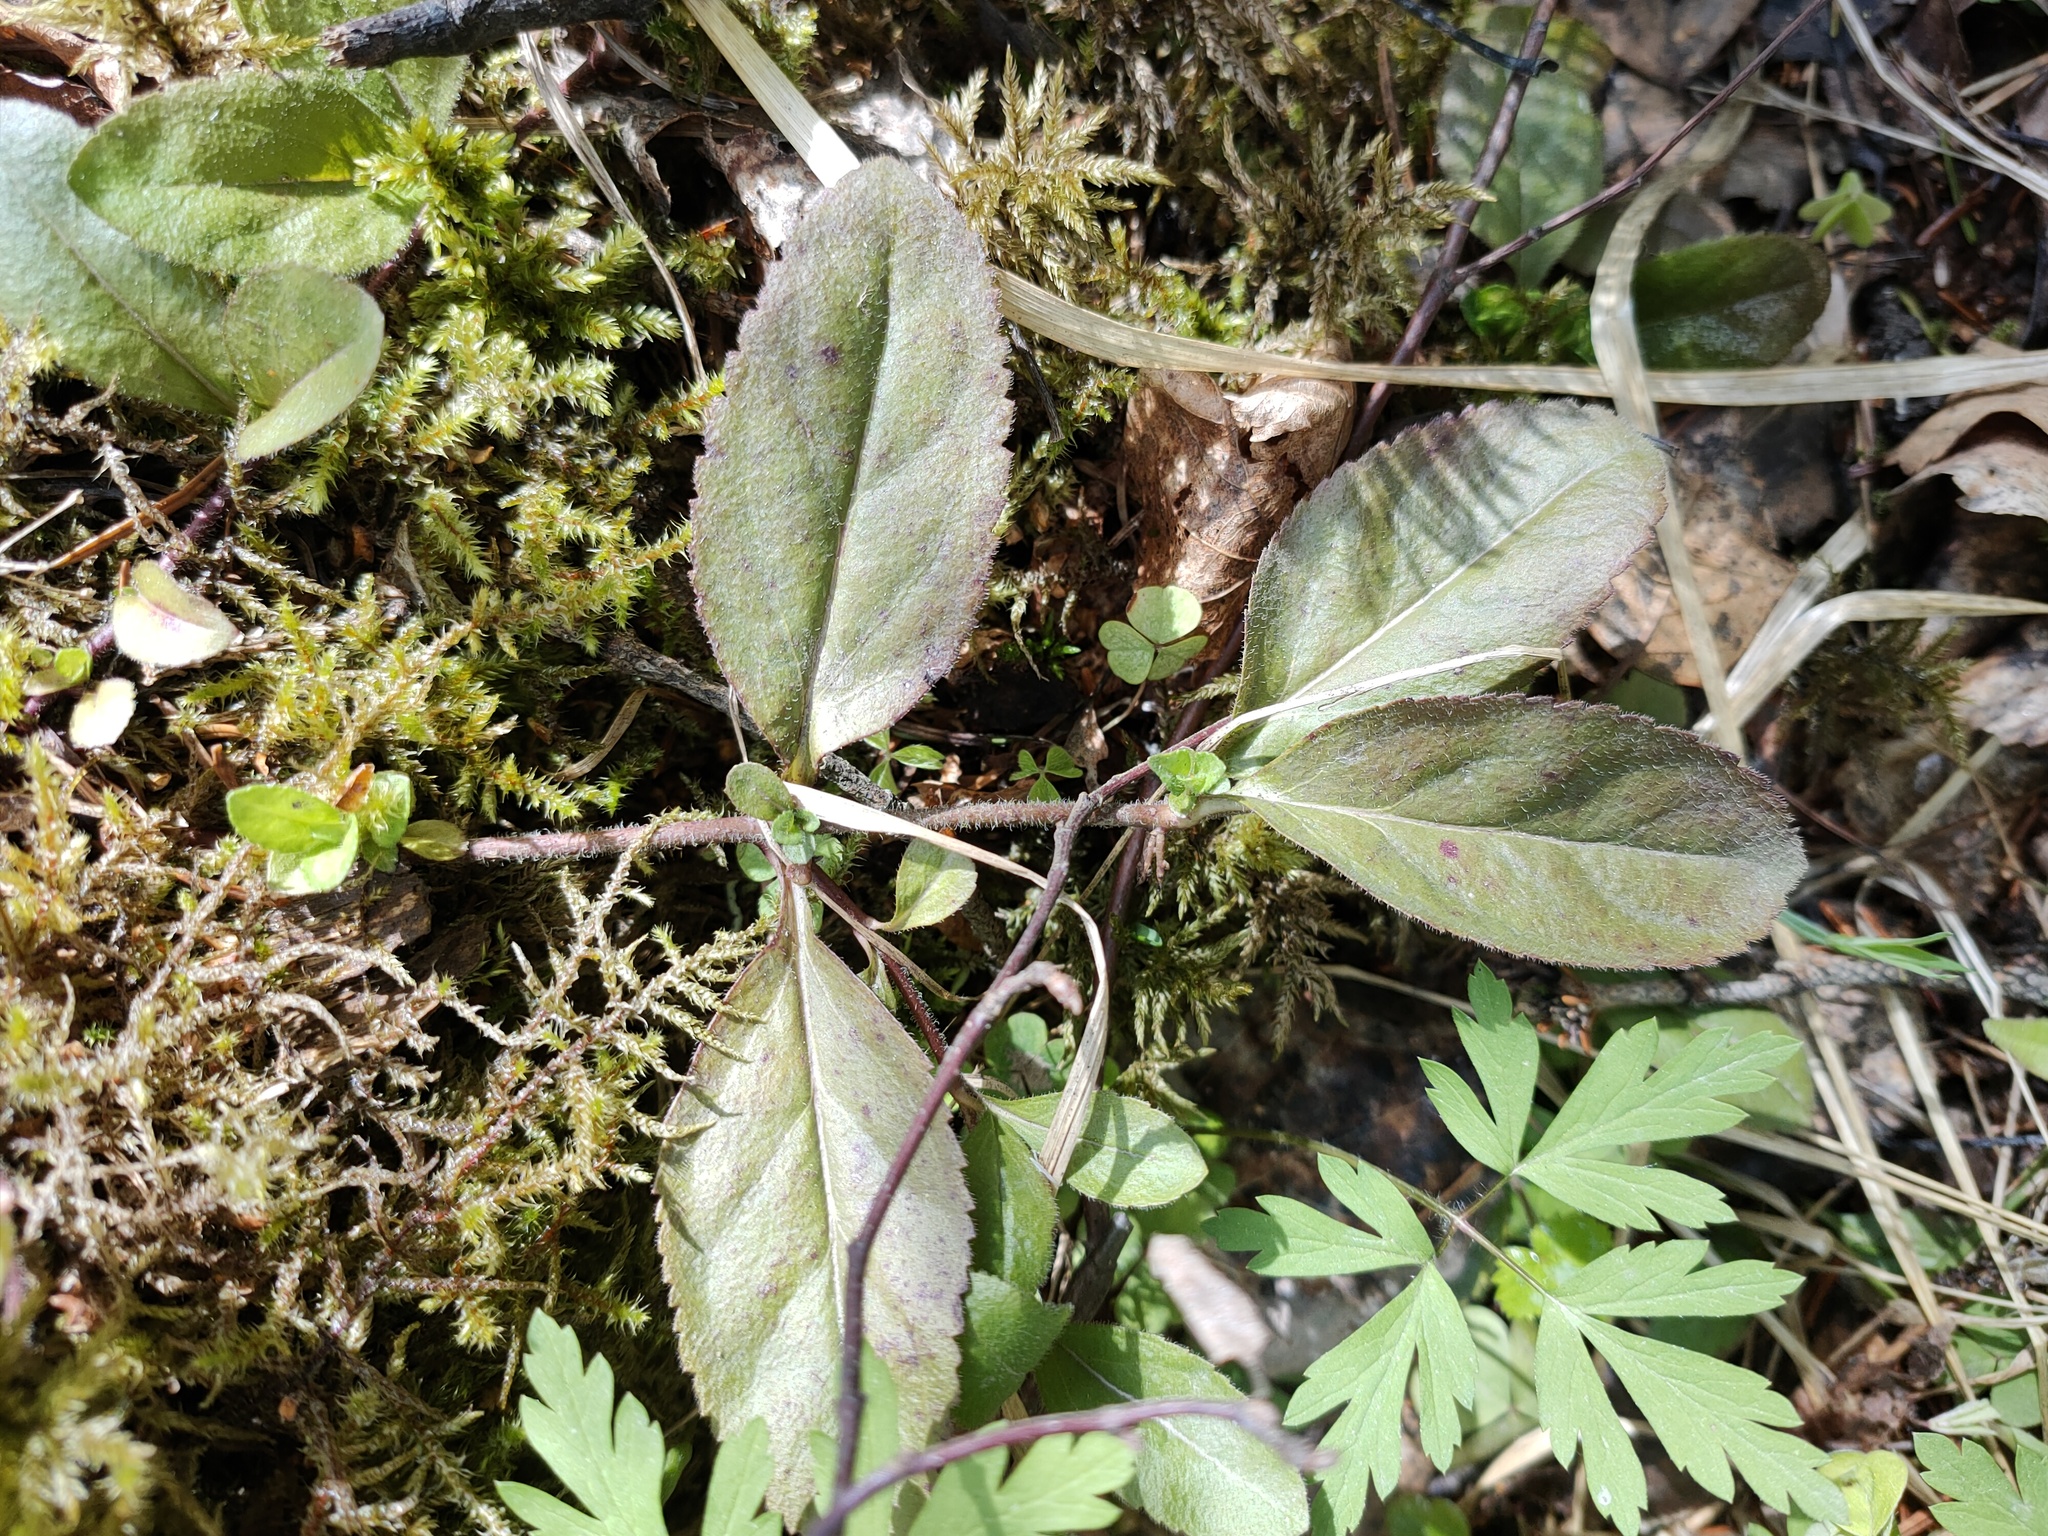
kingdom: Plantae
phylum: Tracheophyta
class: Magnoliopsida
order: Lamiales
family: Plantaginaceae
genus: Veronica
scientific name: Veronica officinalis
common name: Common speedwell
